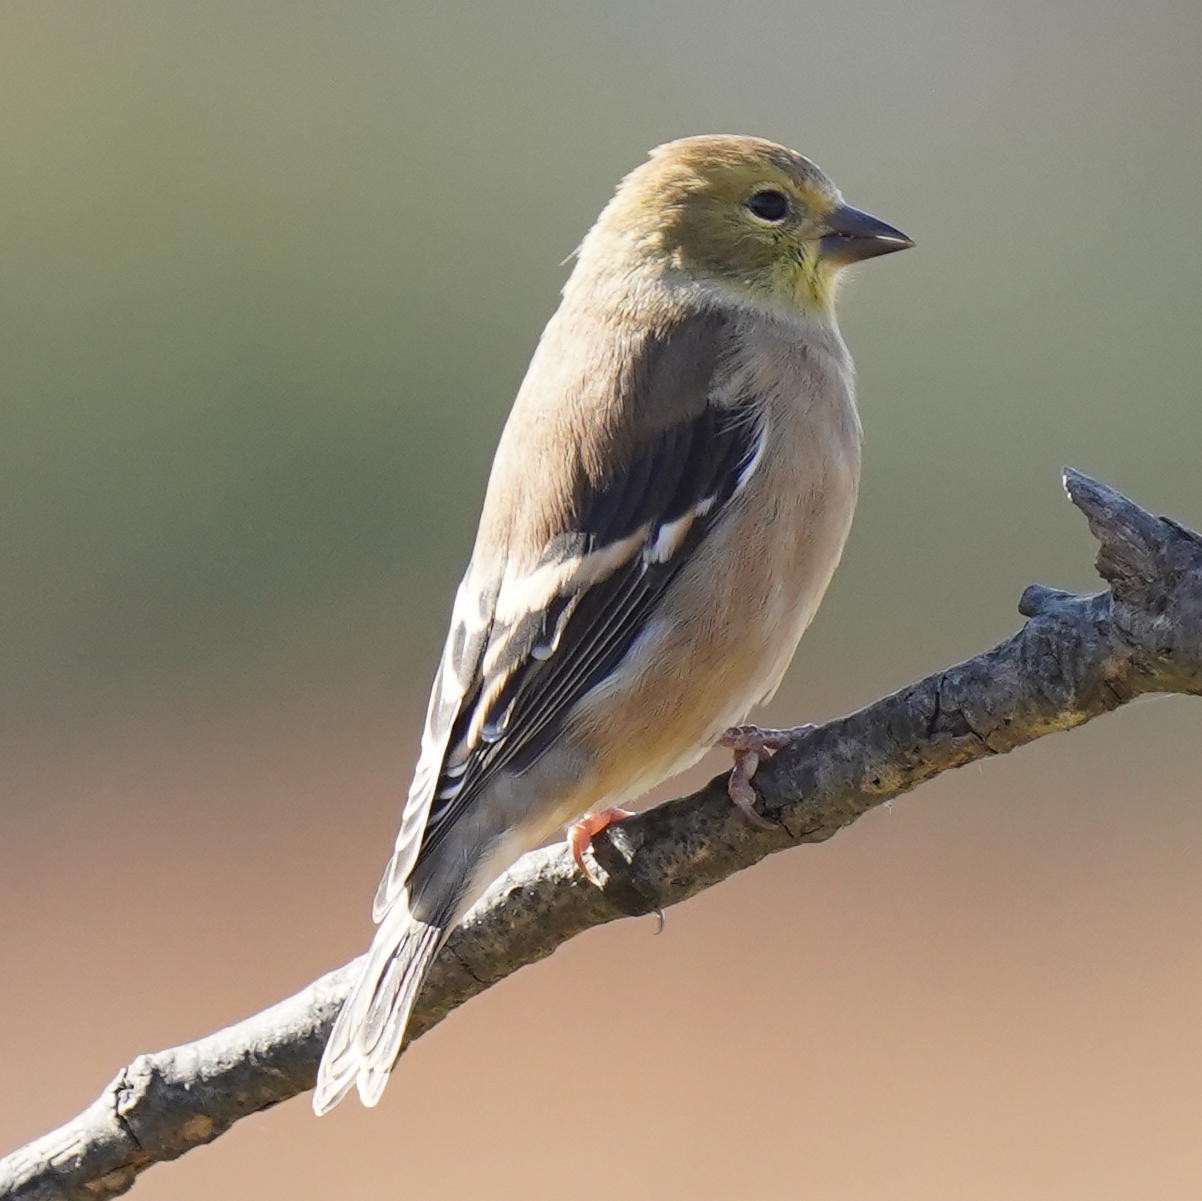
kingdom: Animalia
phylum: Chordata
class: Aves
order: Passeriformes
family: Fringillidae
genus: Spinus
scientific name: Spinus tristis
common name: American goldfinch
